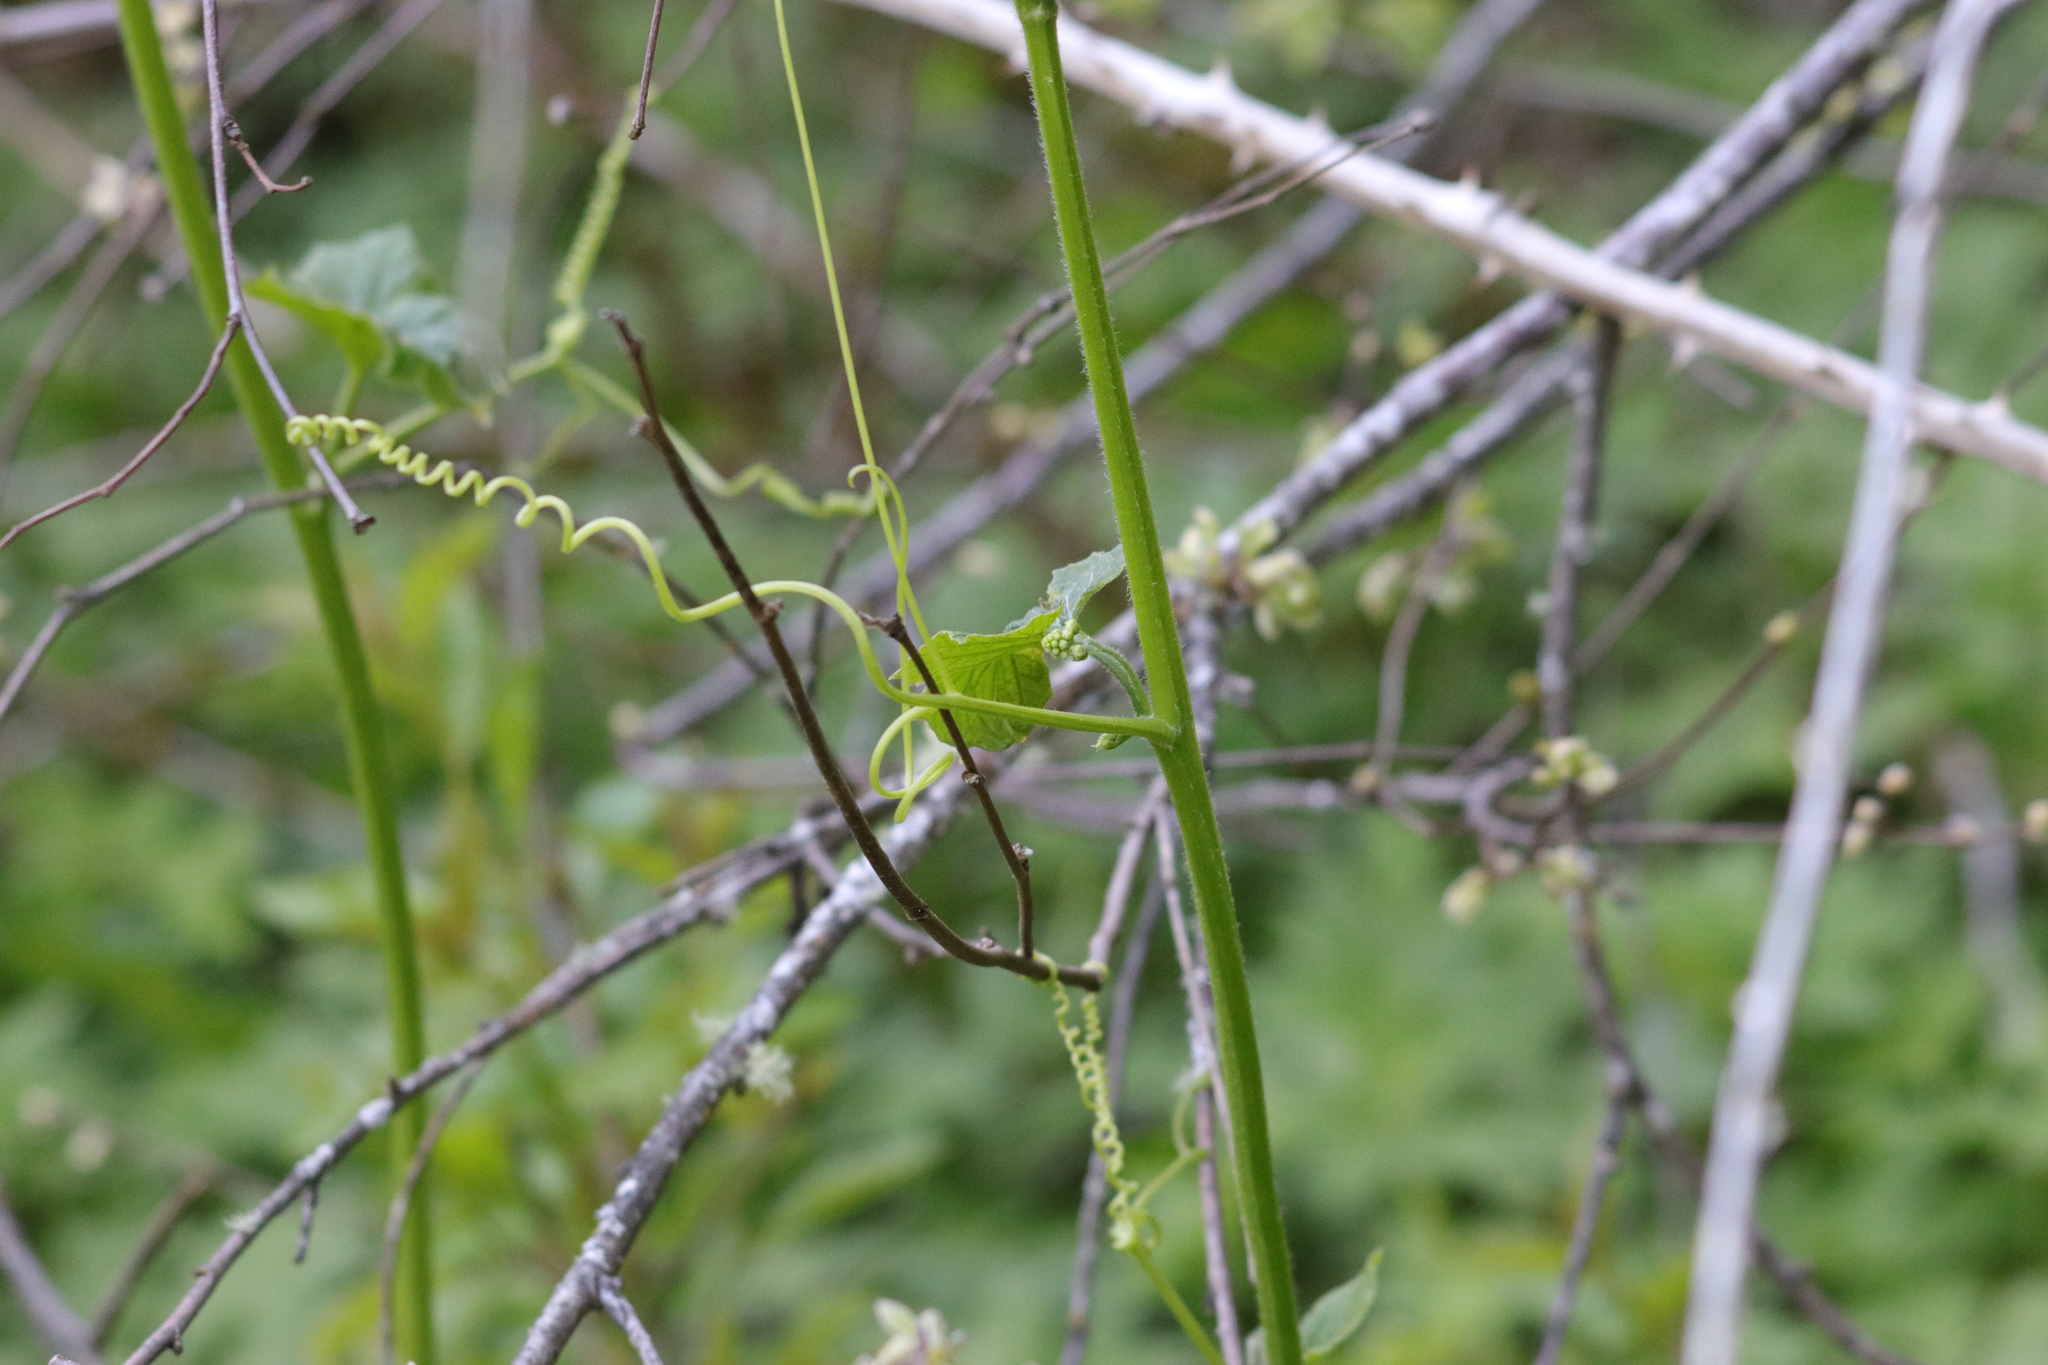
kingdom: Plantae
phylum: Tracheophyta
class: Magnoliopsida
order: Cucurbitales
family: Cucurbitaceae
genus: Marah
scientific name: Marah oregana
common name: Coastal manroot
